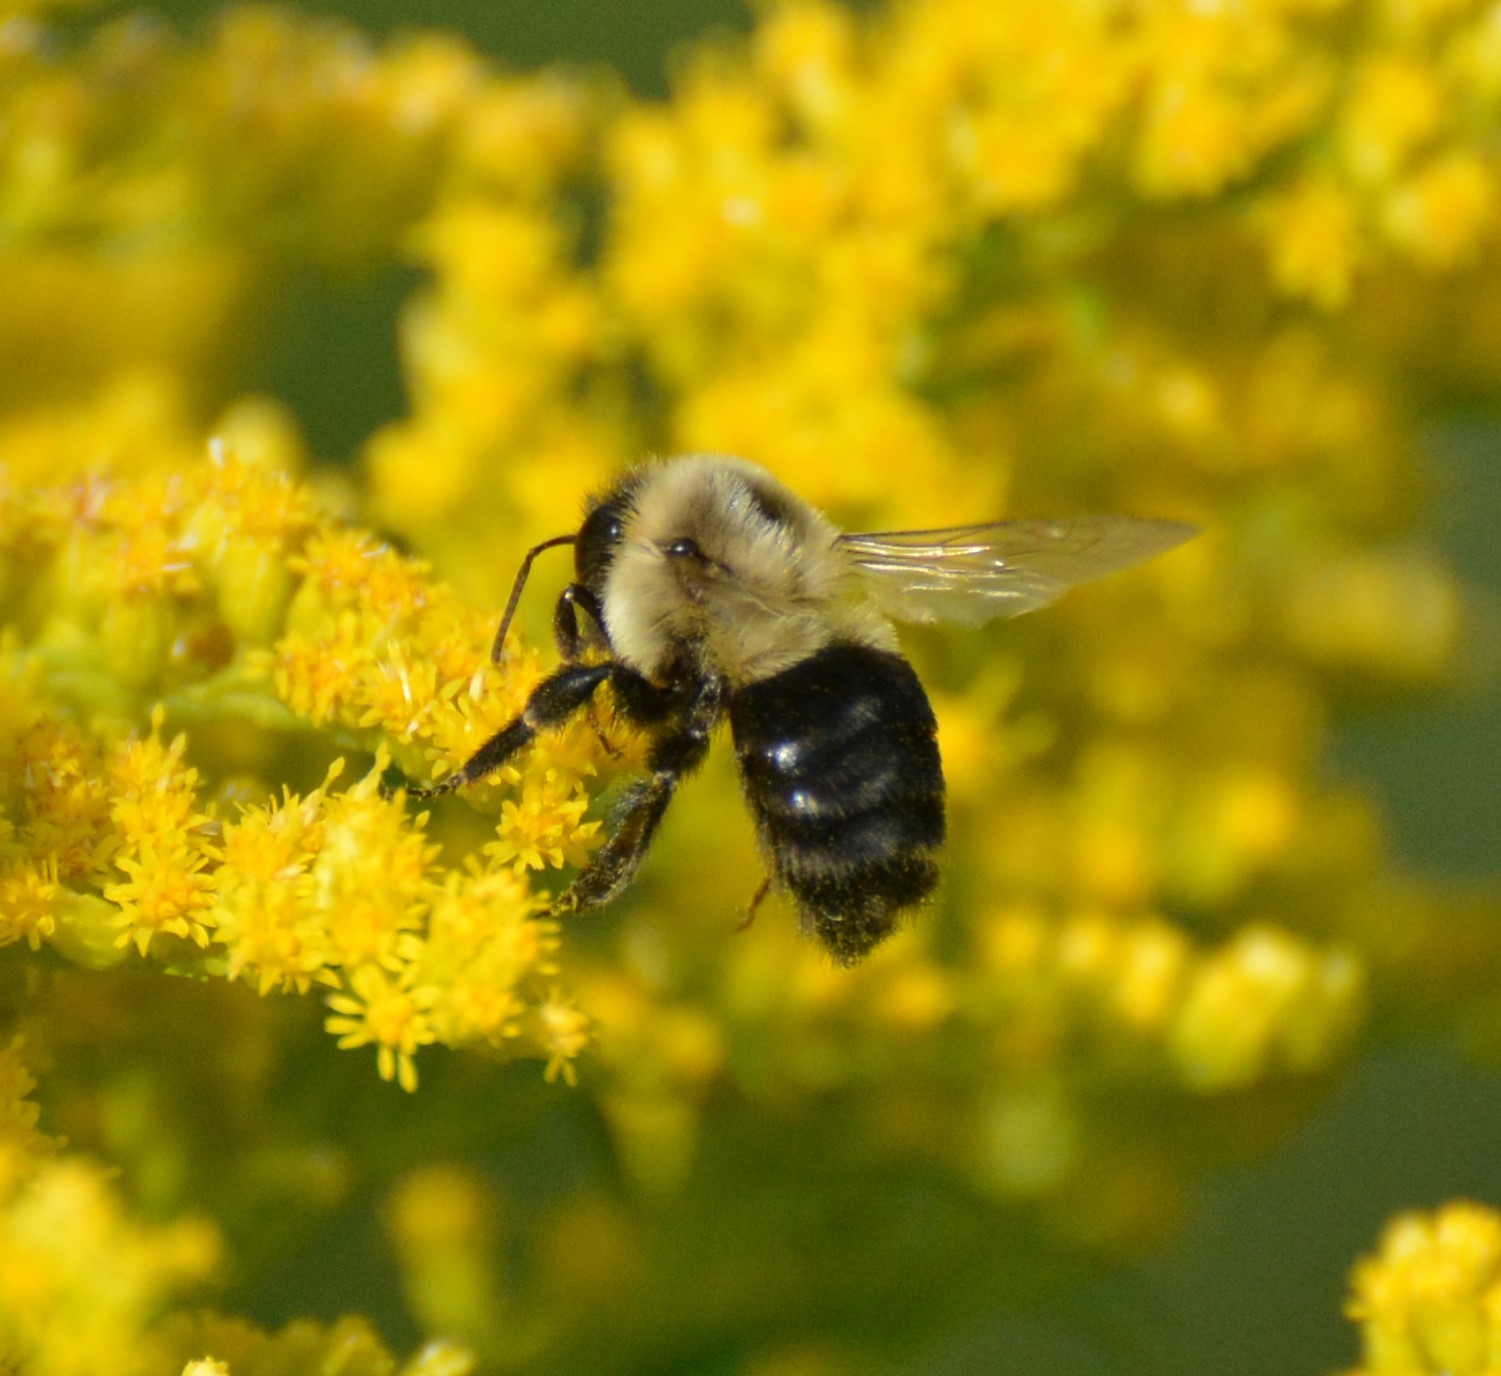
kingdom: Animalia
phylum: Arthropoda
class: Insecta
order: Hymenoptera
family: Apidae
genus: Bombus
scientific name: Bombus impatiens
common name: Common eastern bumble bee
